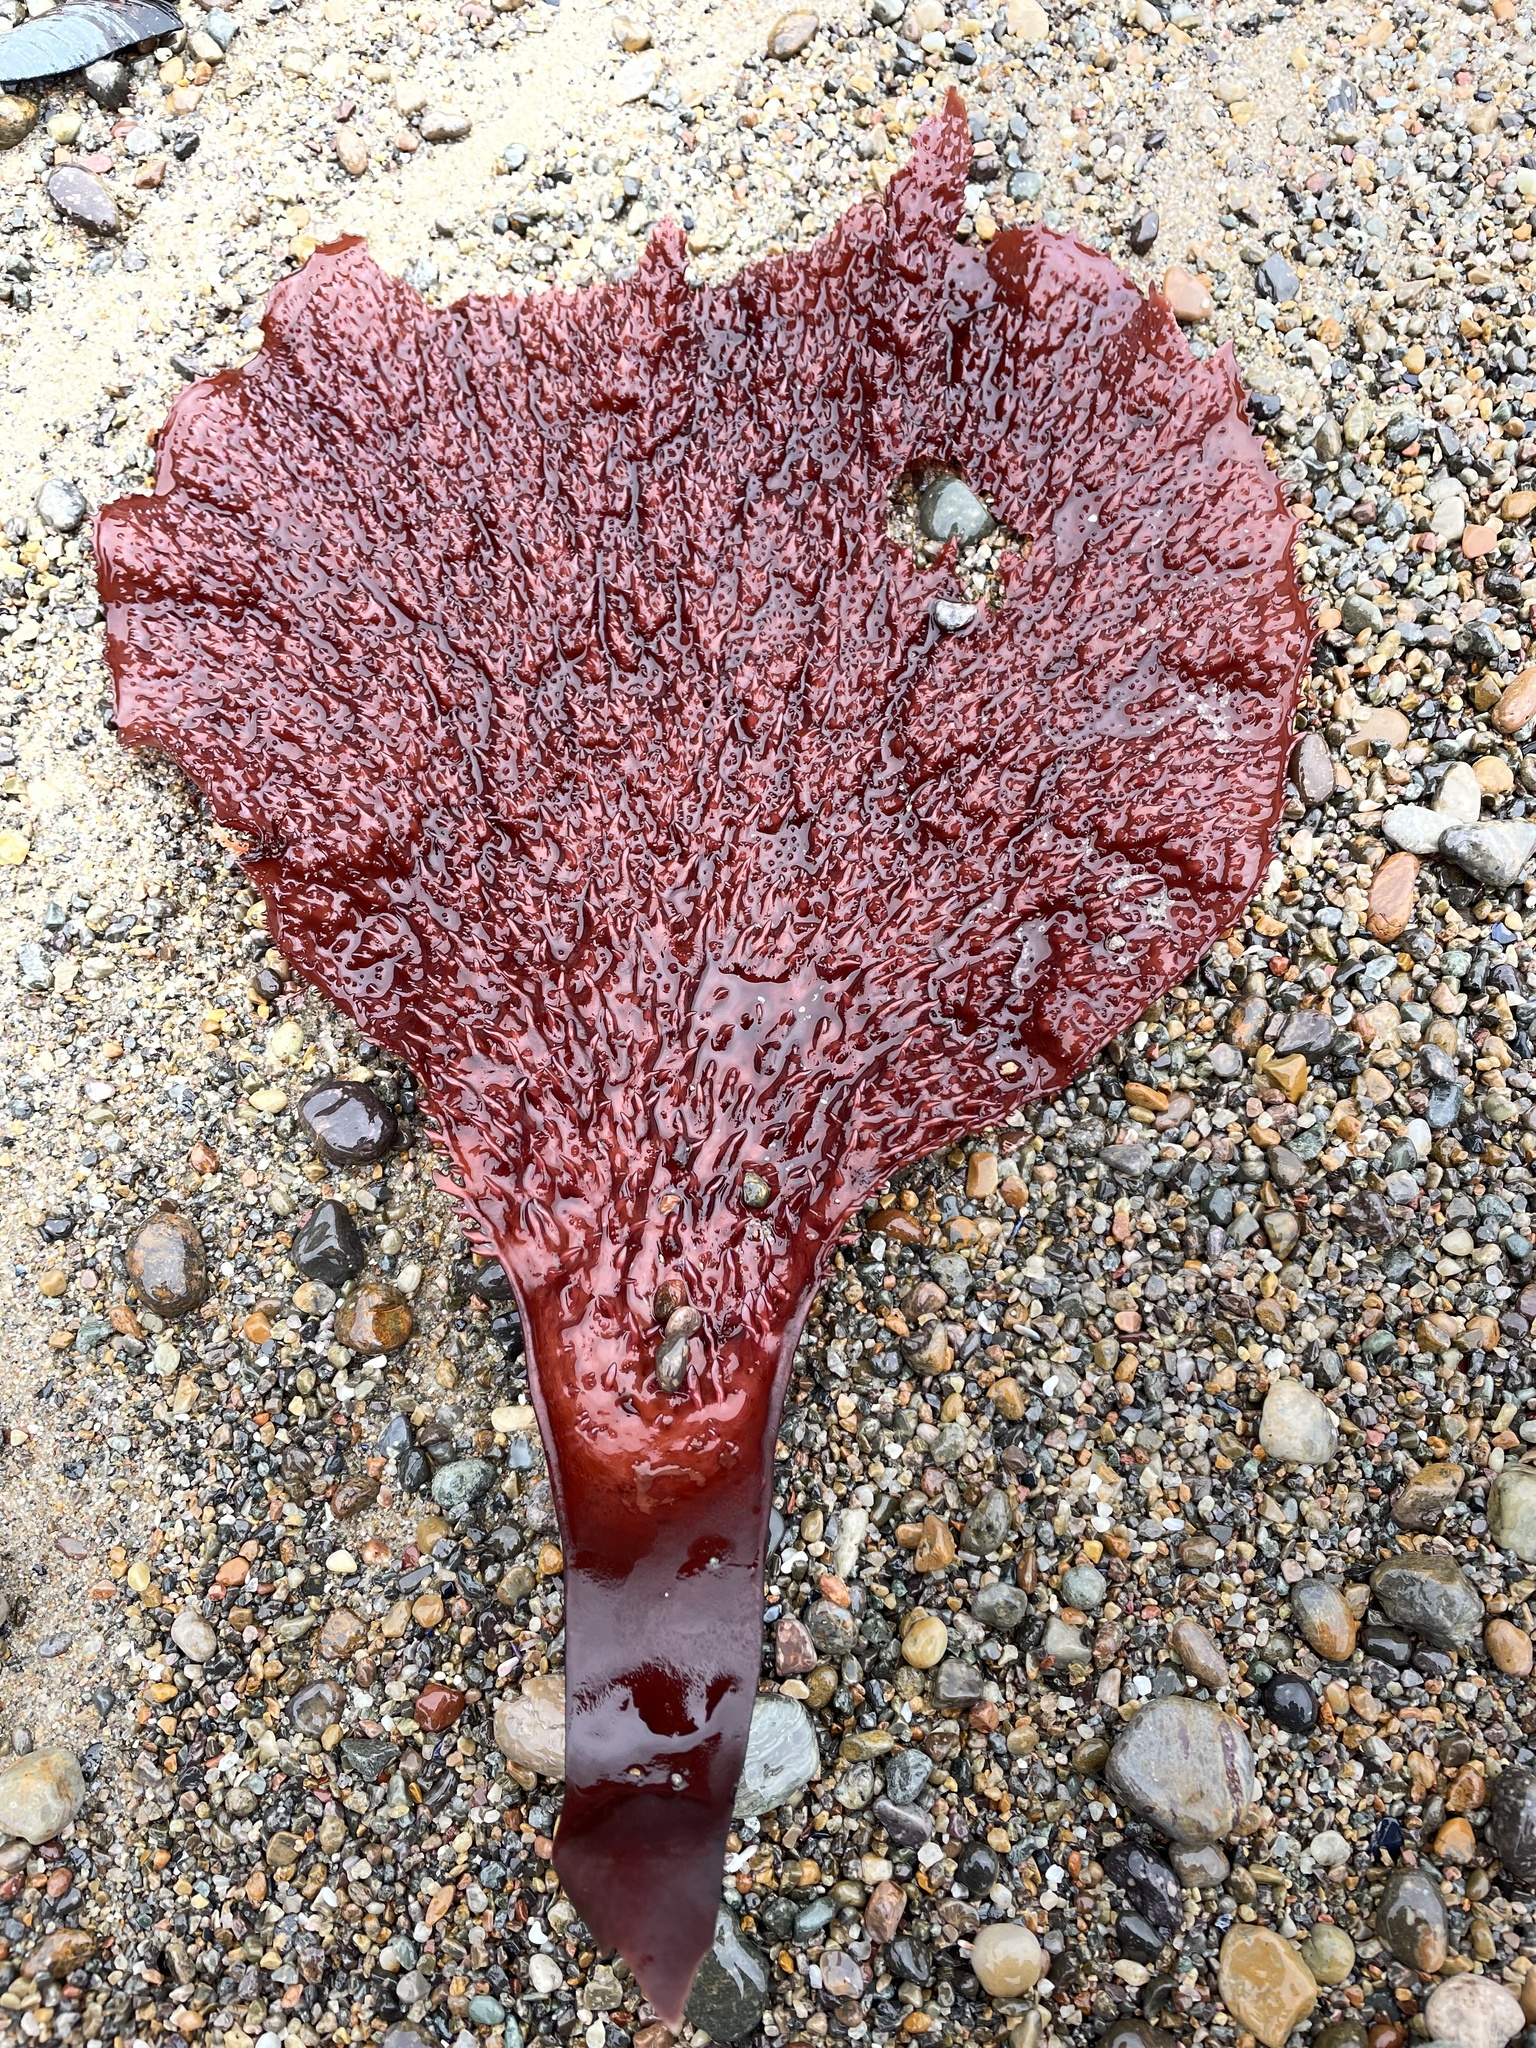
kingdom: Plantae
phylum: Rhodophyta
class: Florideophyceae
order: Gigartinales
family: Gigartinaceae
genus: Chondracanthus
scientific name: Chondracanthus corymbiferus
